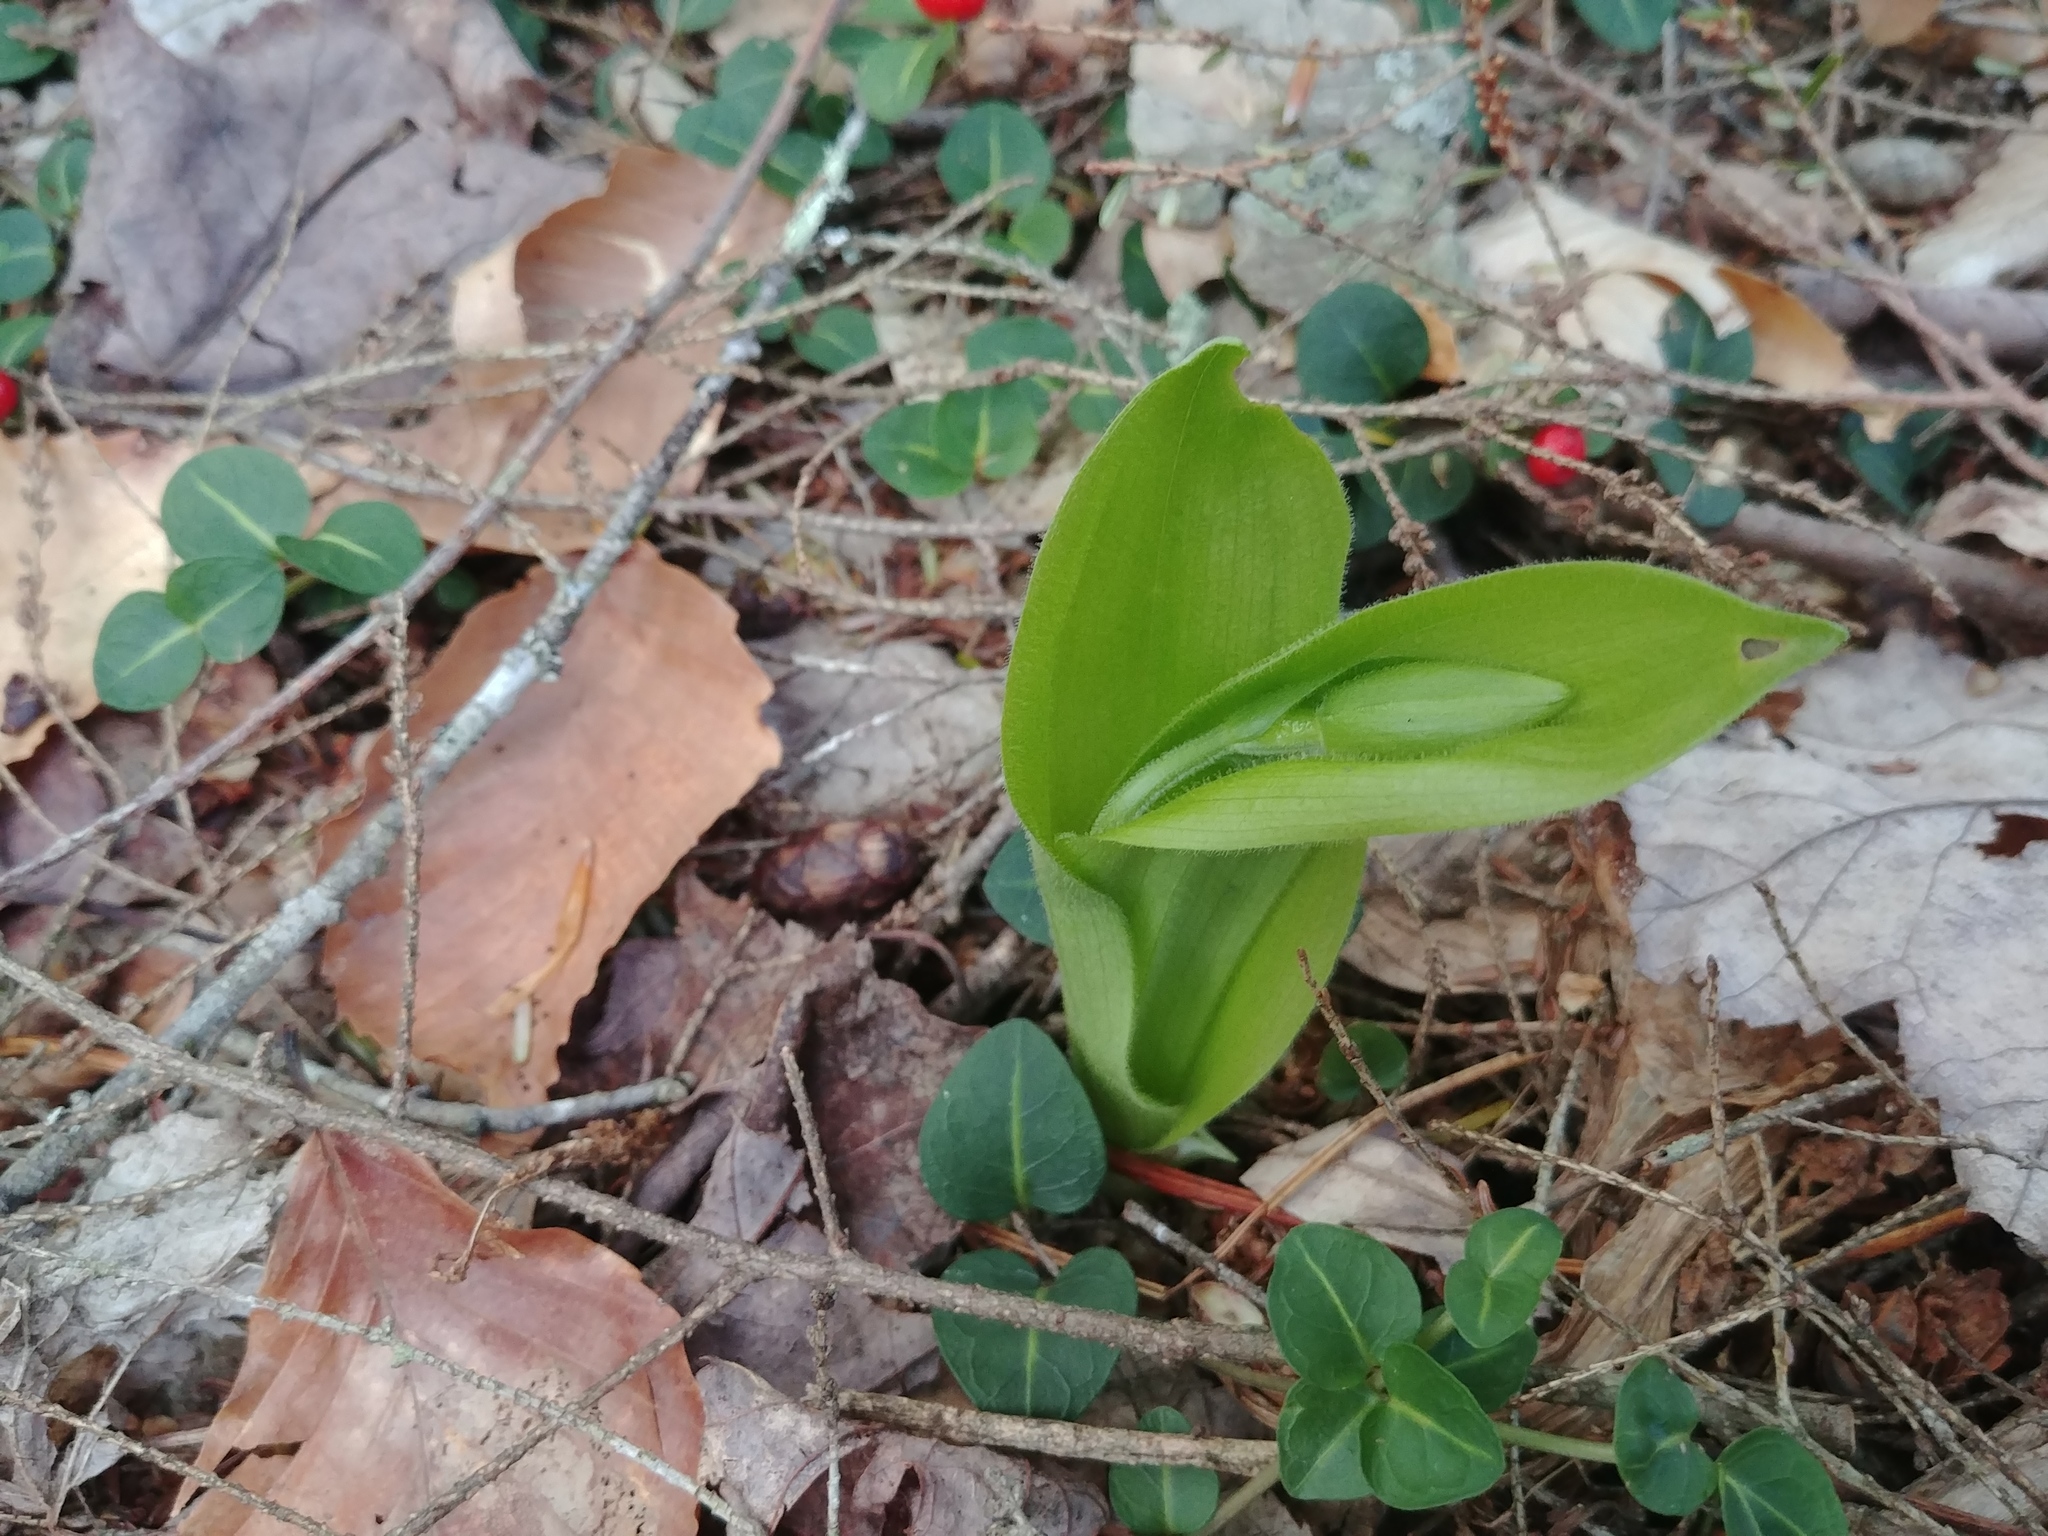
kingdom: Plantae
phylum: Tracheophyta
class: Liliopsida
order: Asparagales
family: Orchidaceae
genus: Cypripedium
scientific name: Cypripedium acaule
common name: Pink lady's-slipper
